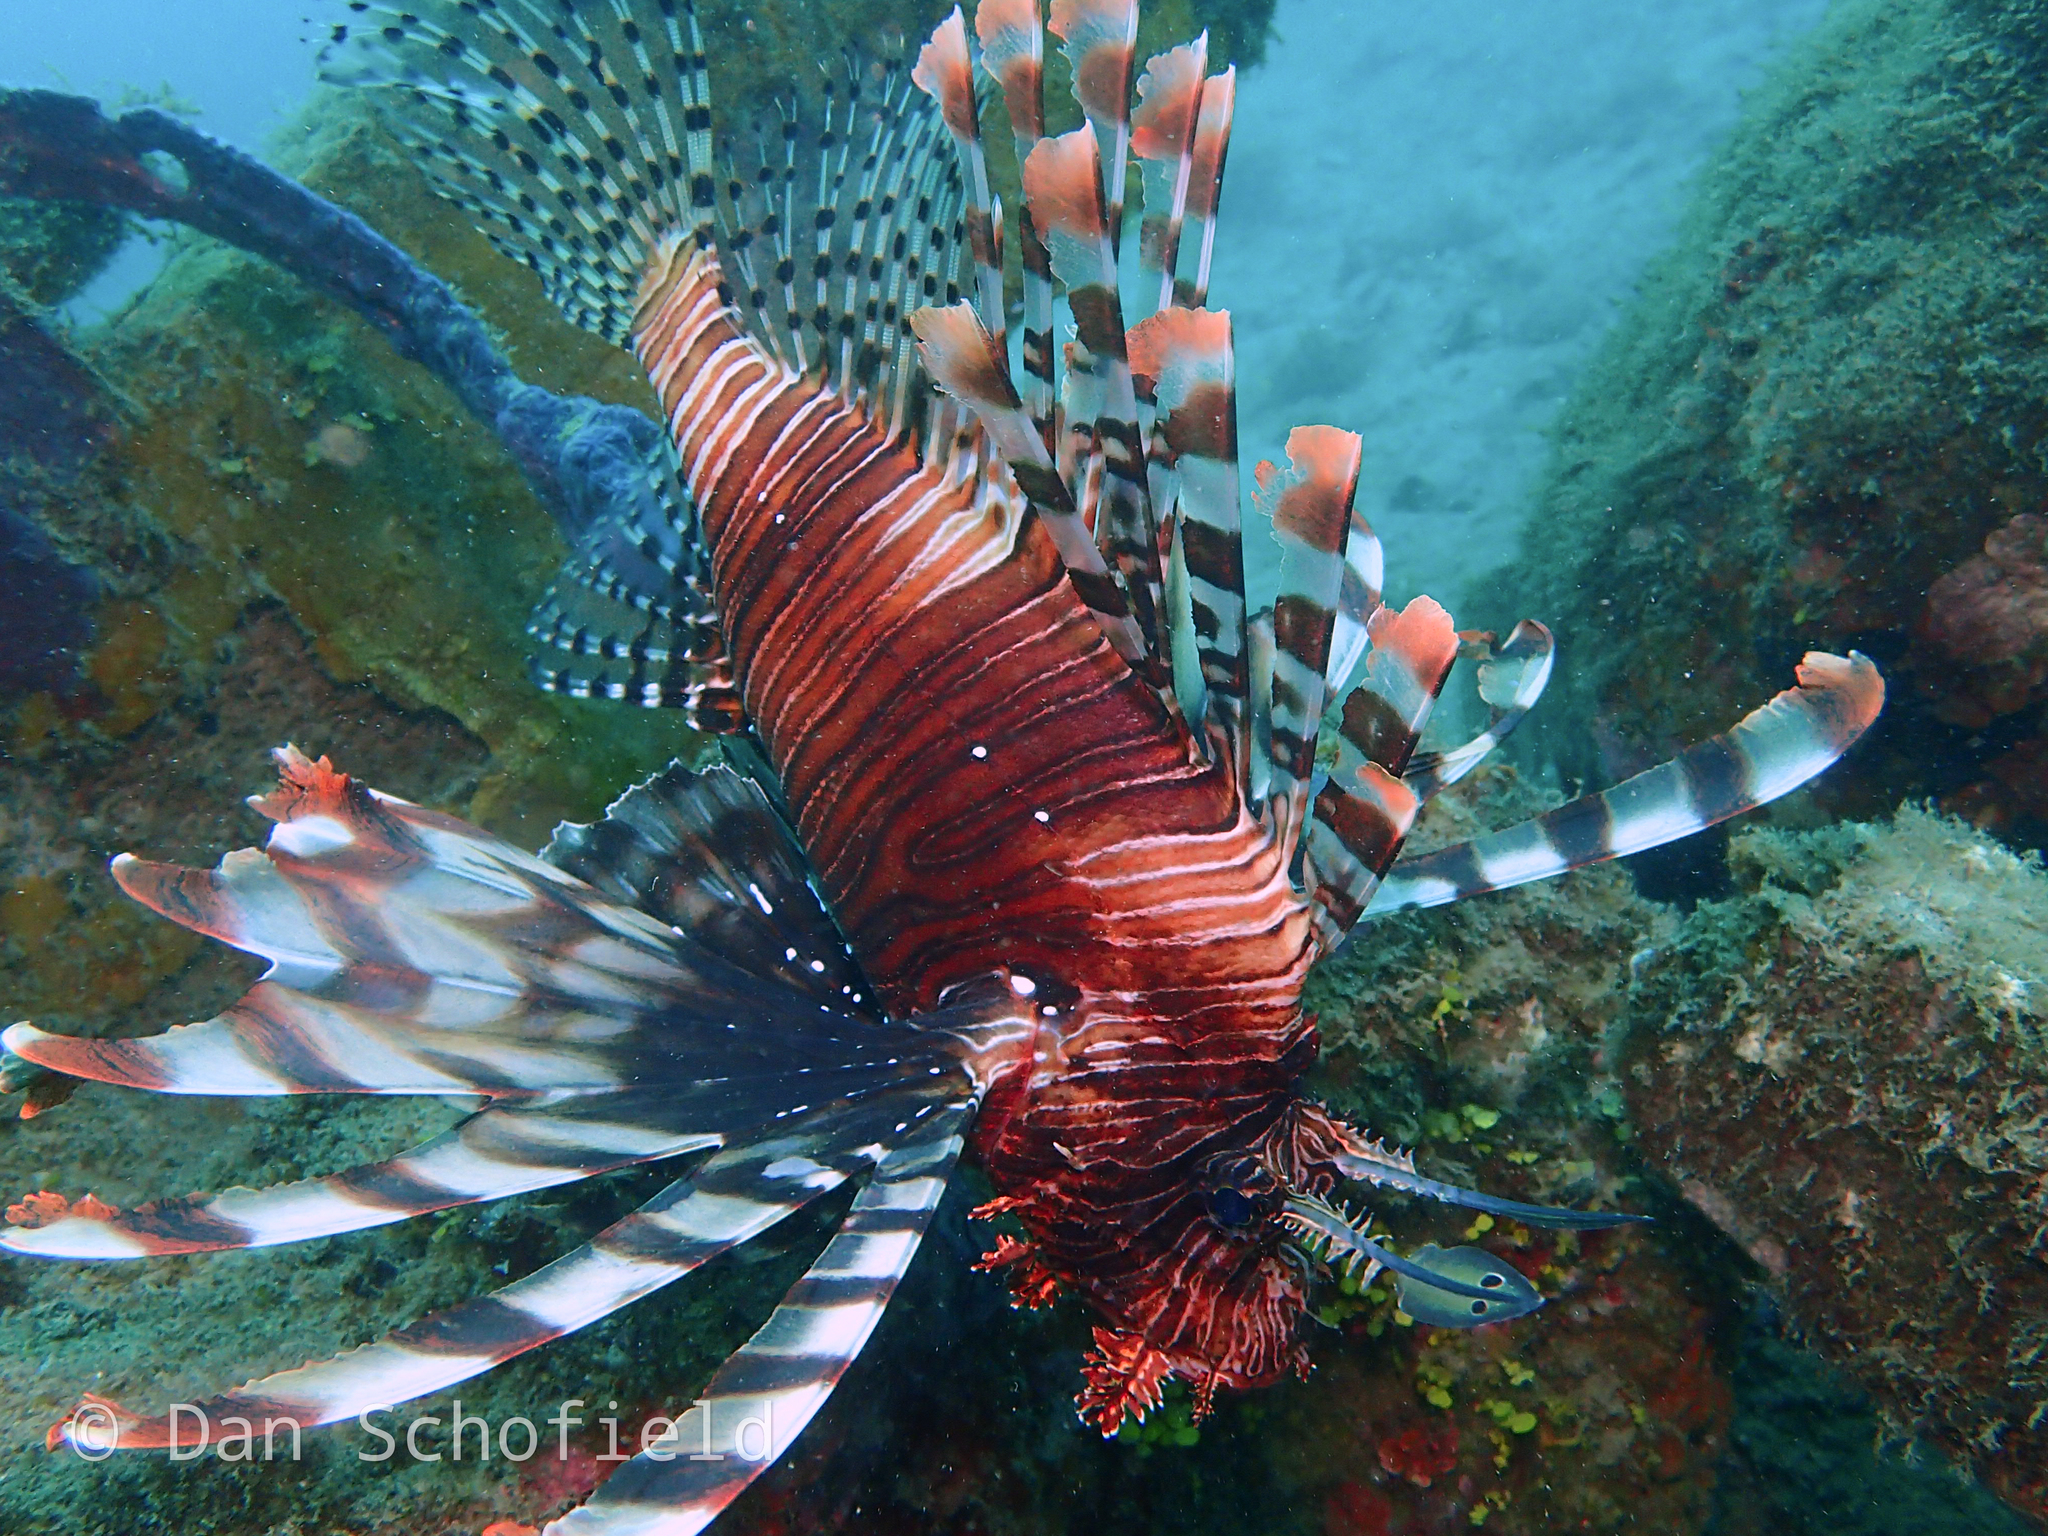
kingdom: Animalia
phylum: Chordata
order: Scorpaeniformes
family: Scorpaenidae
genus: Pterois
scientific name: Pterois volitans
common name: Lionfish
